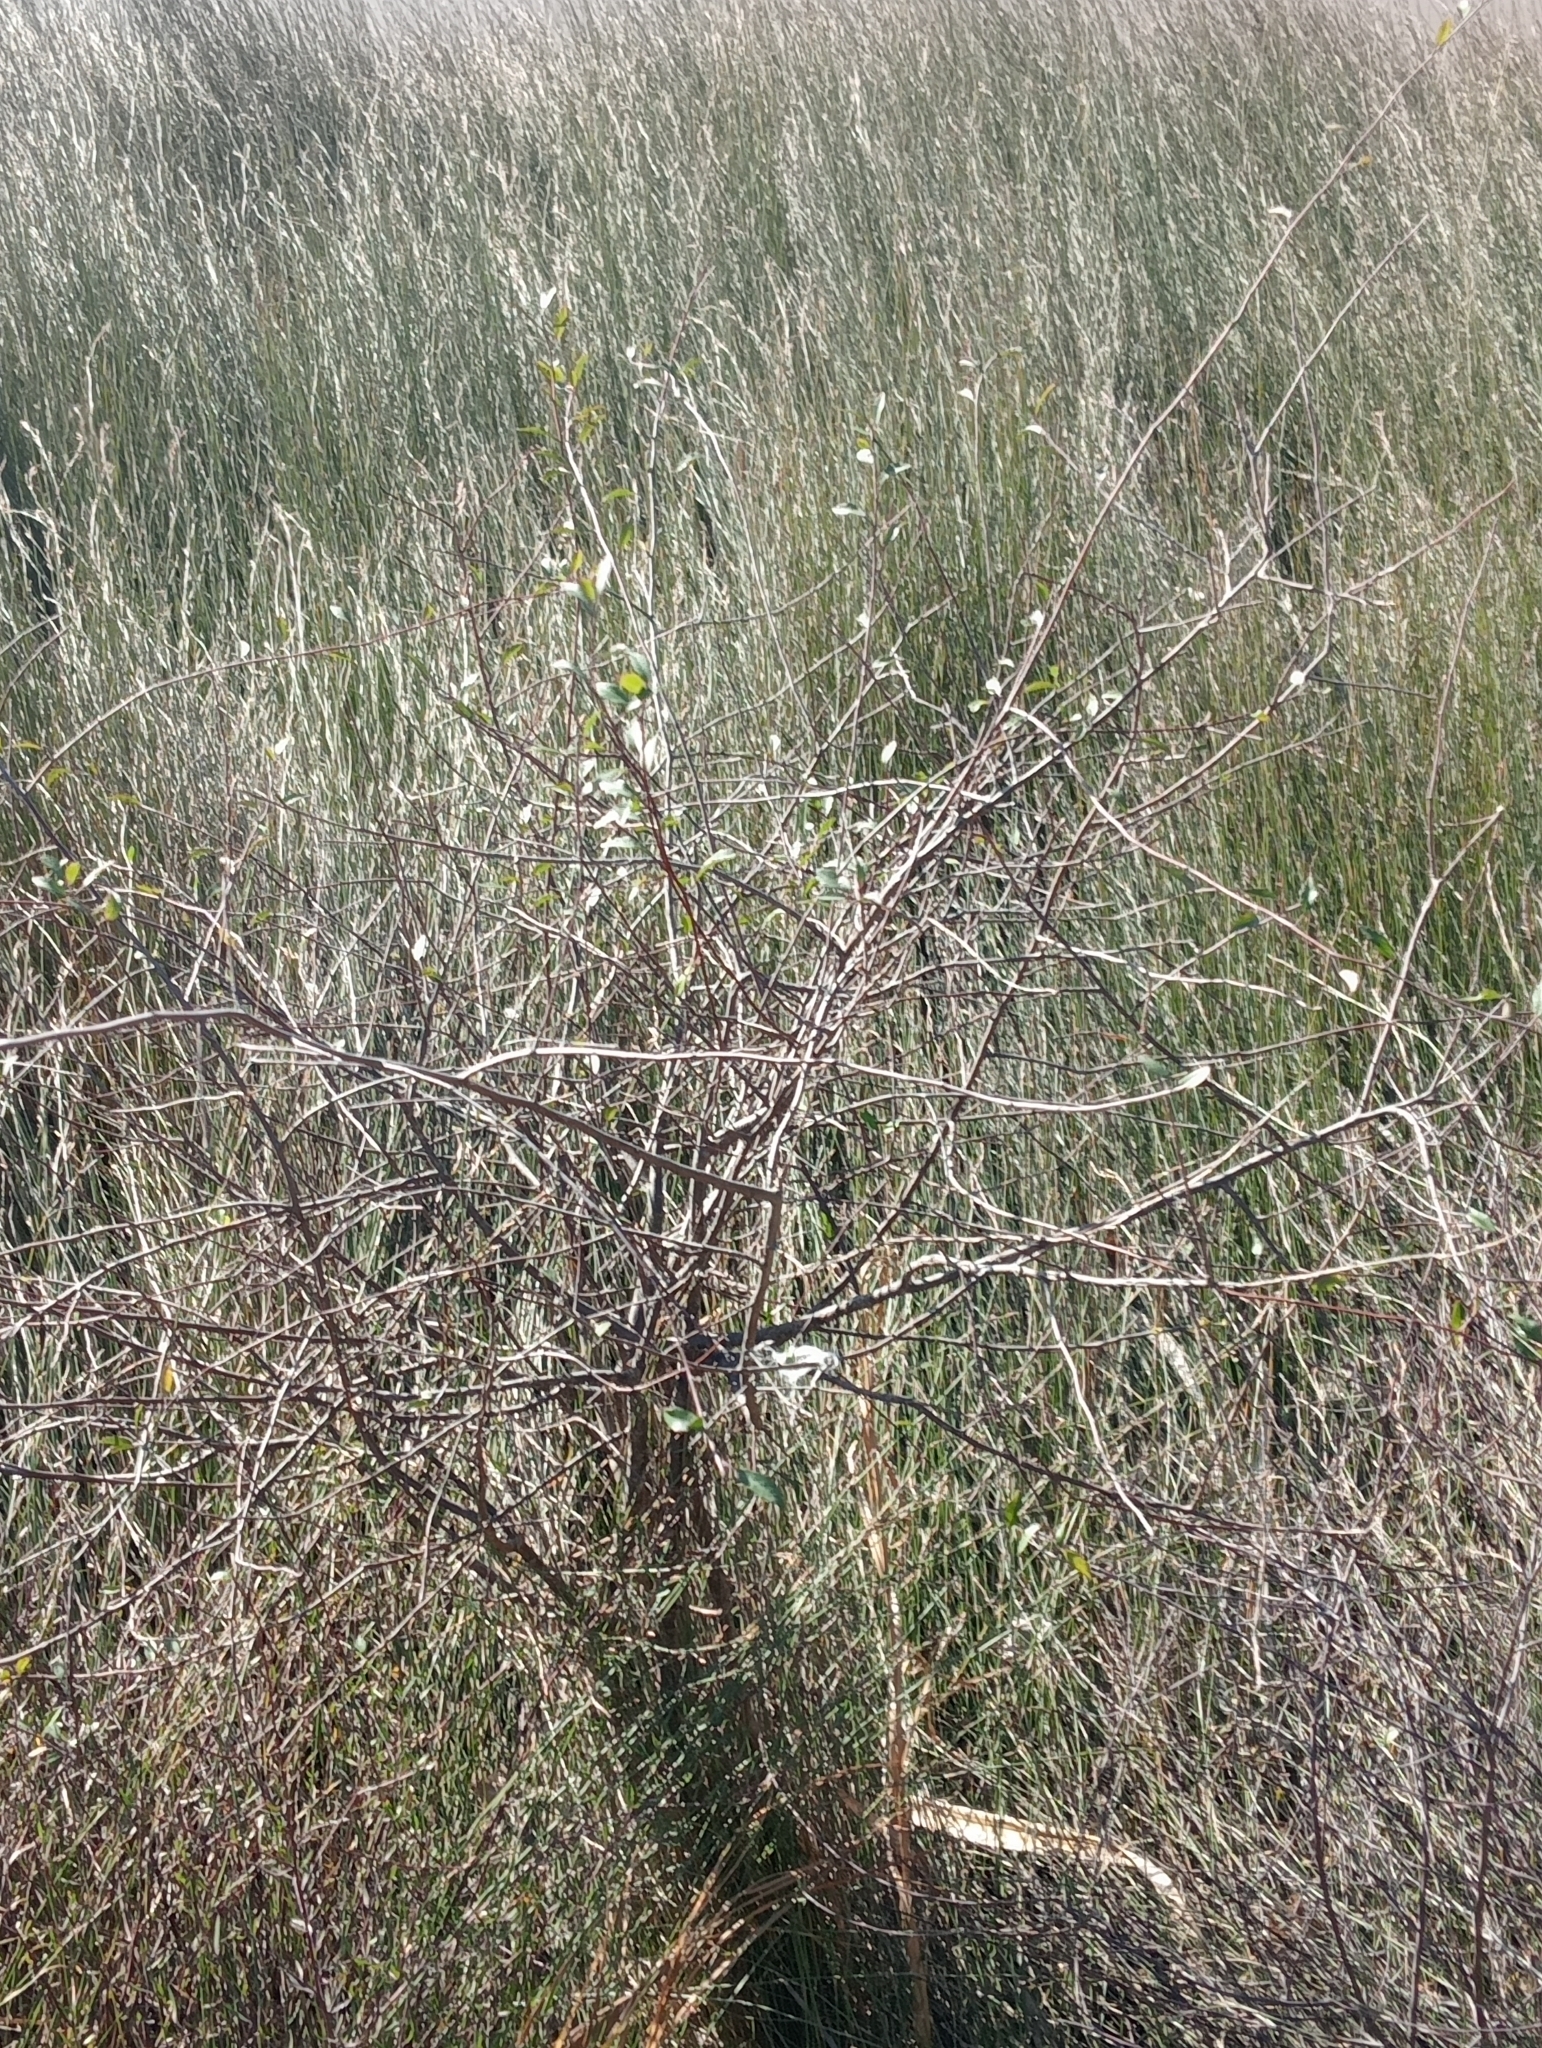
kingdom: Plantae
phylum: Tracheophyta
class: Magnoliopsida
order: Malvales
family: Malvaceae
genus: Plagianthus
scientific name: Plagianthus cymosus
